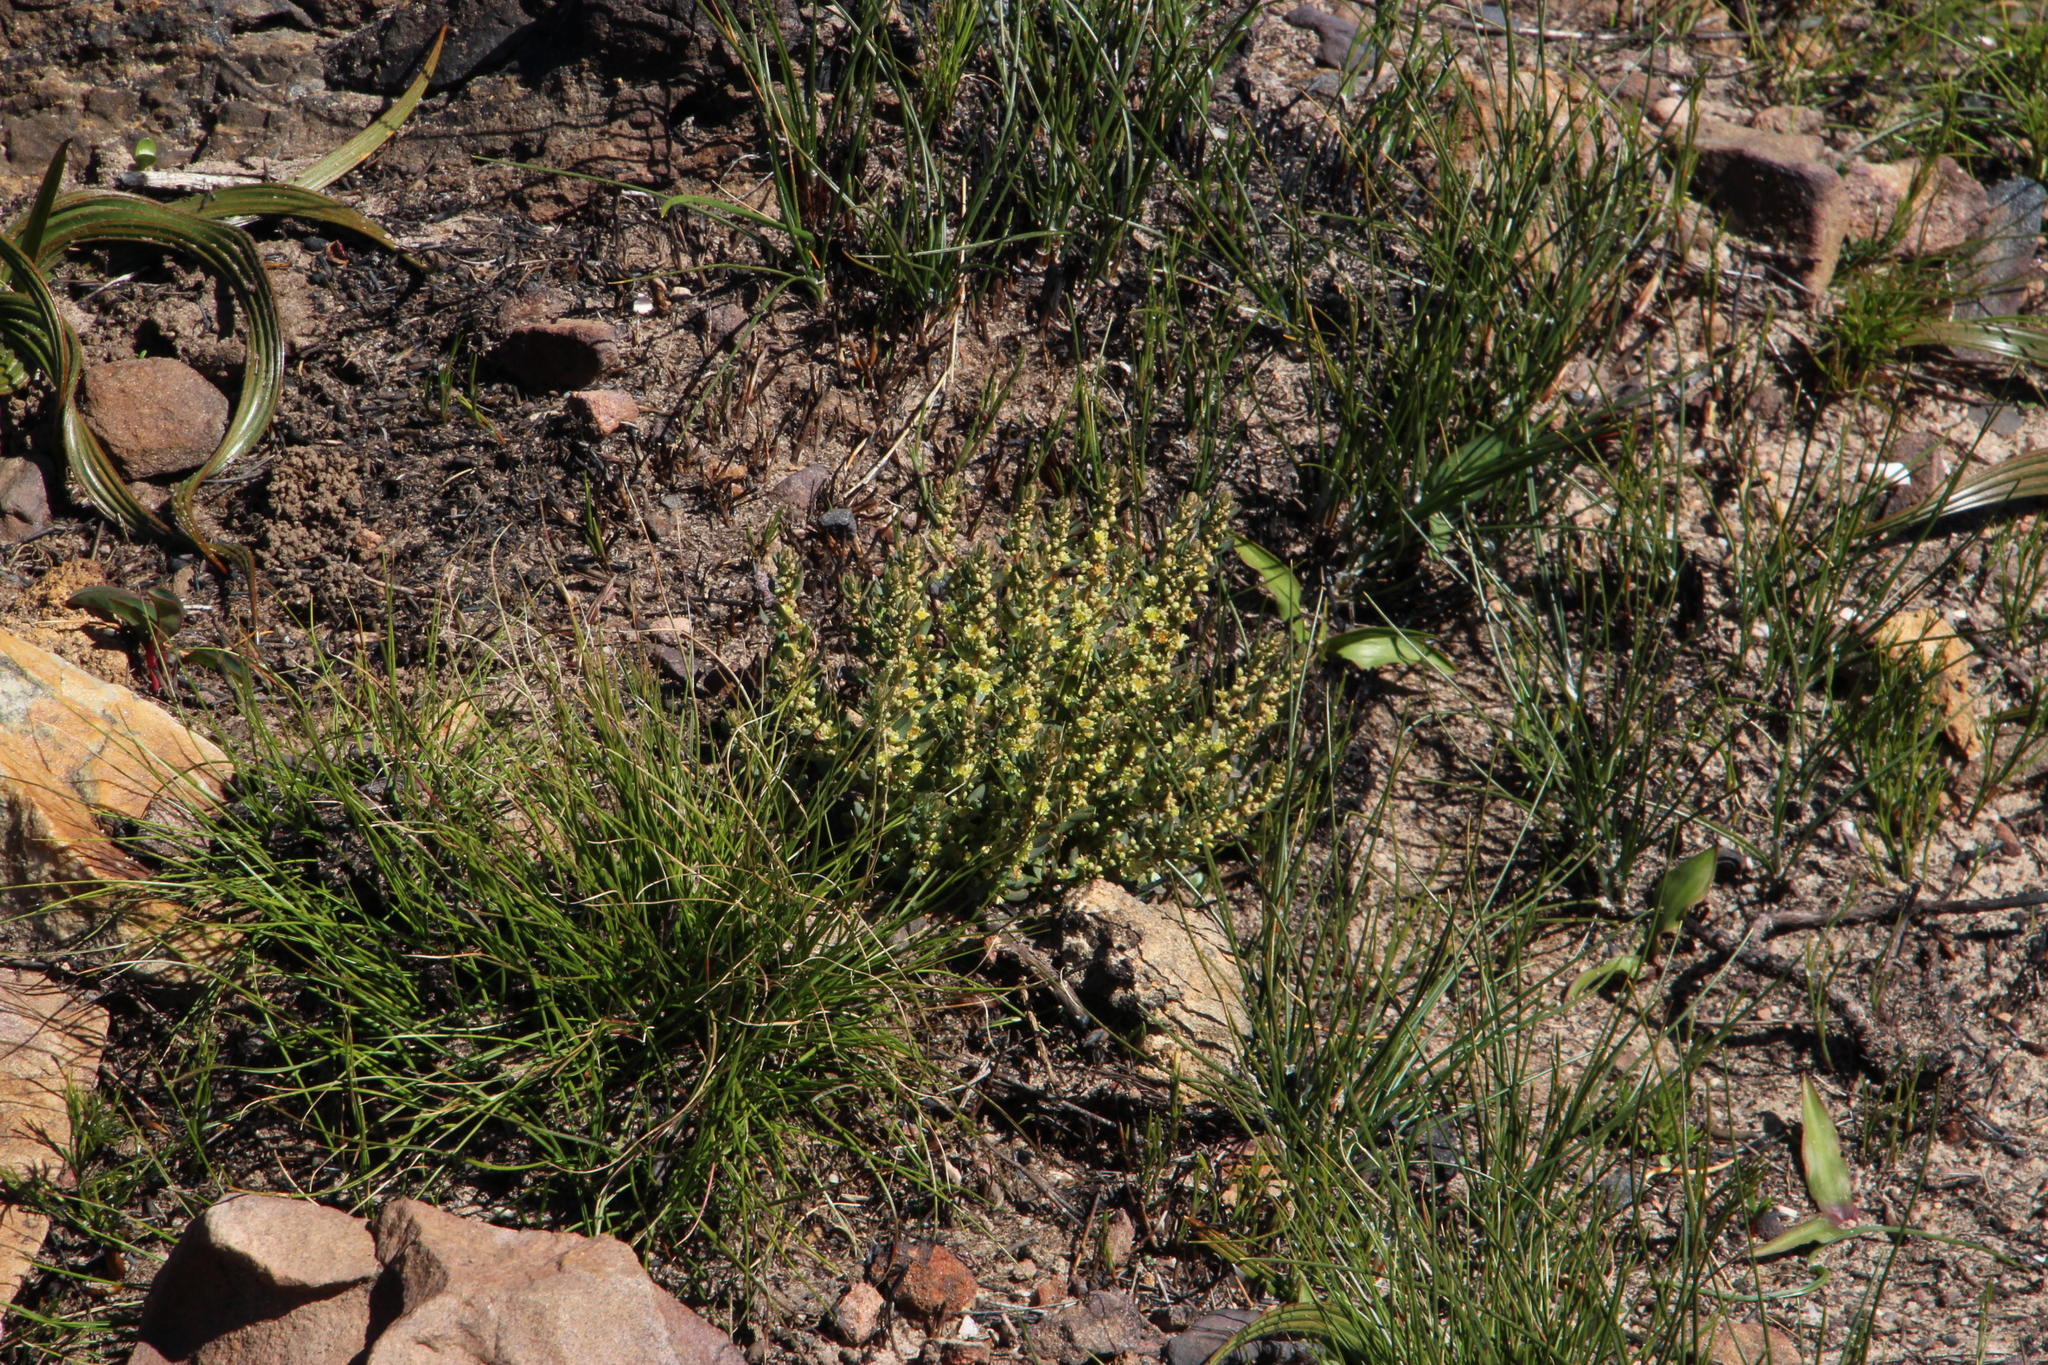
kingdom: Plantae
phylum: Tracheophyta
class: Magnoliopsida
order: Malpighiales
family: Peraceae
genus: Clutia
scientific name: Clutia alaternoides
